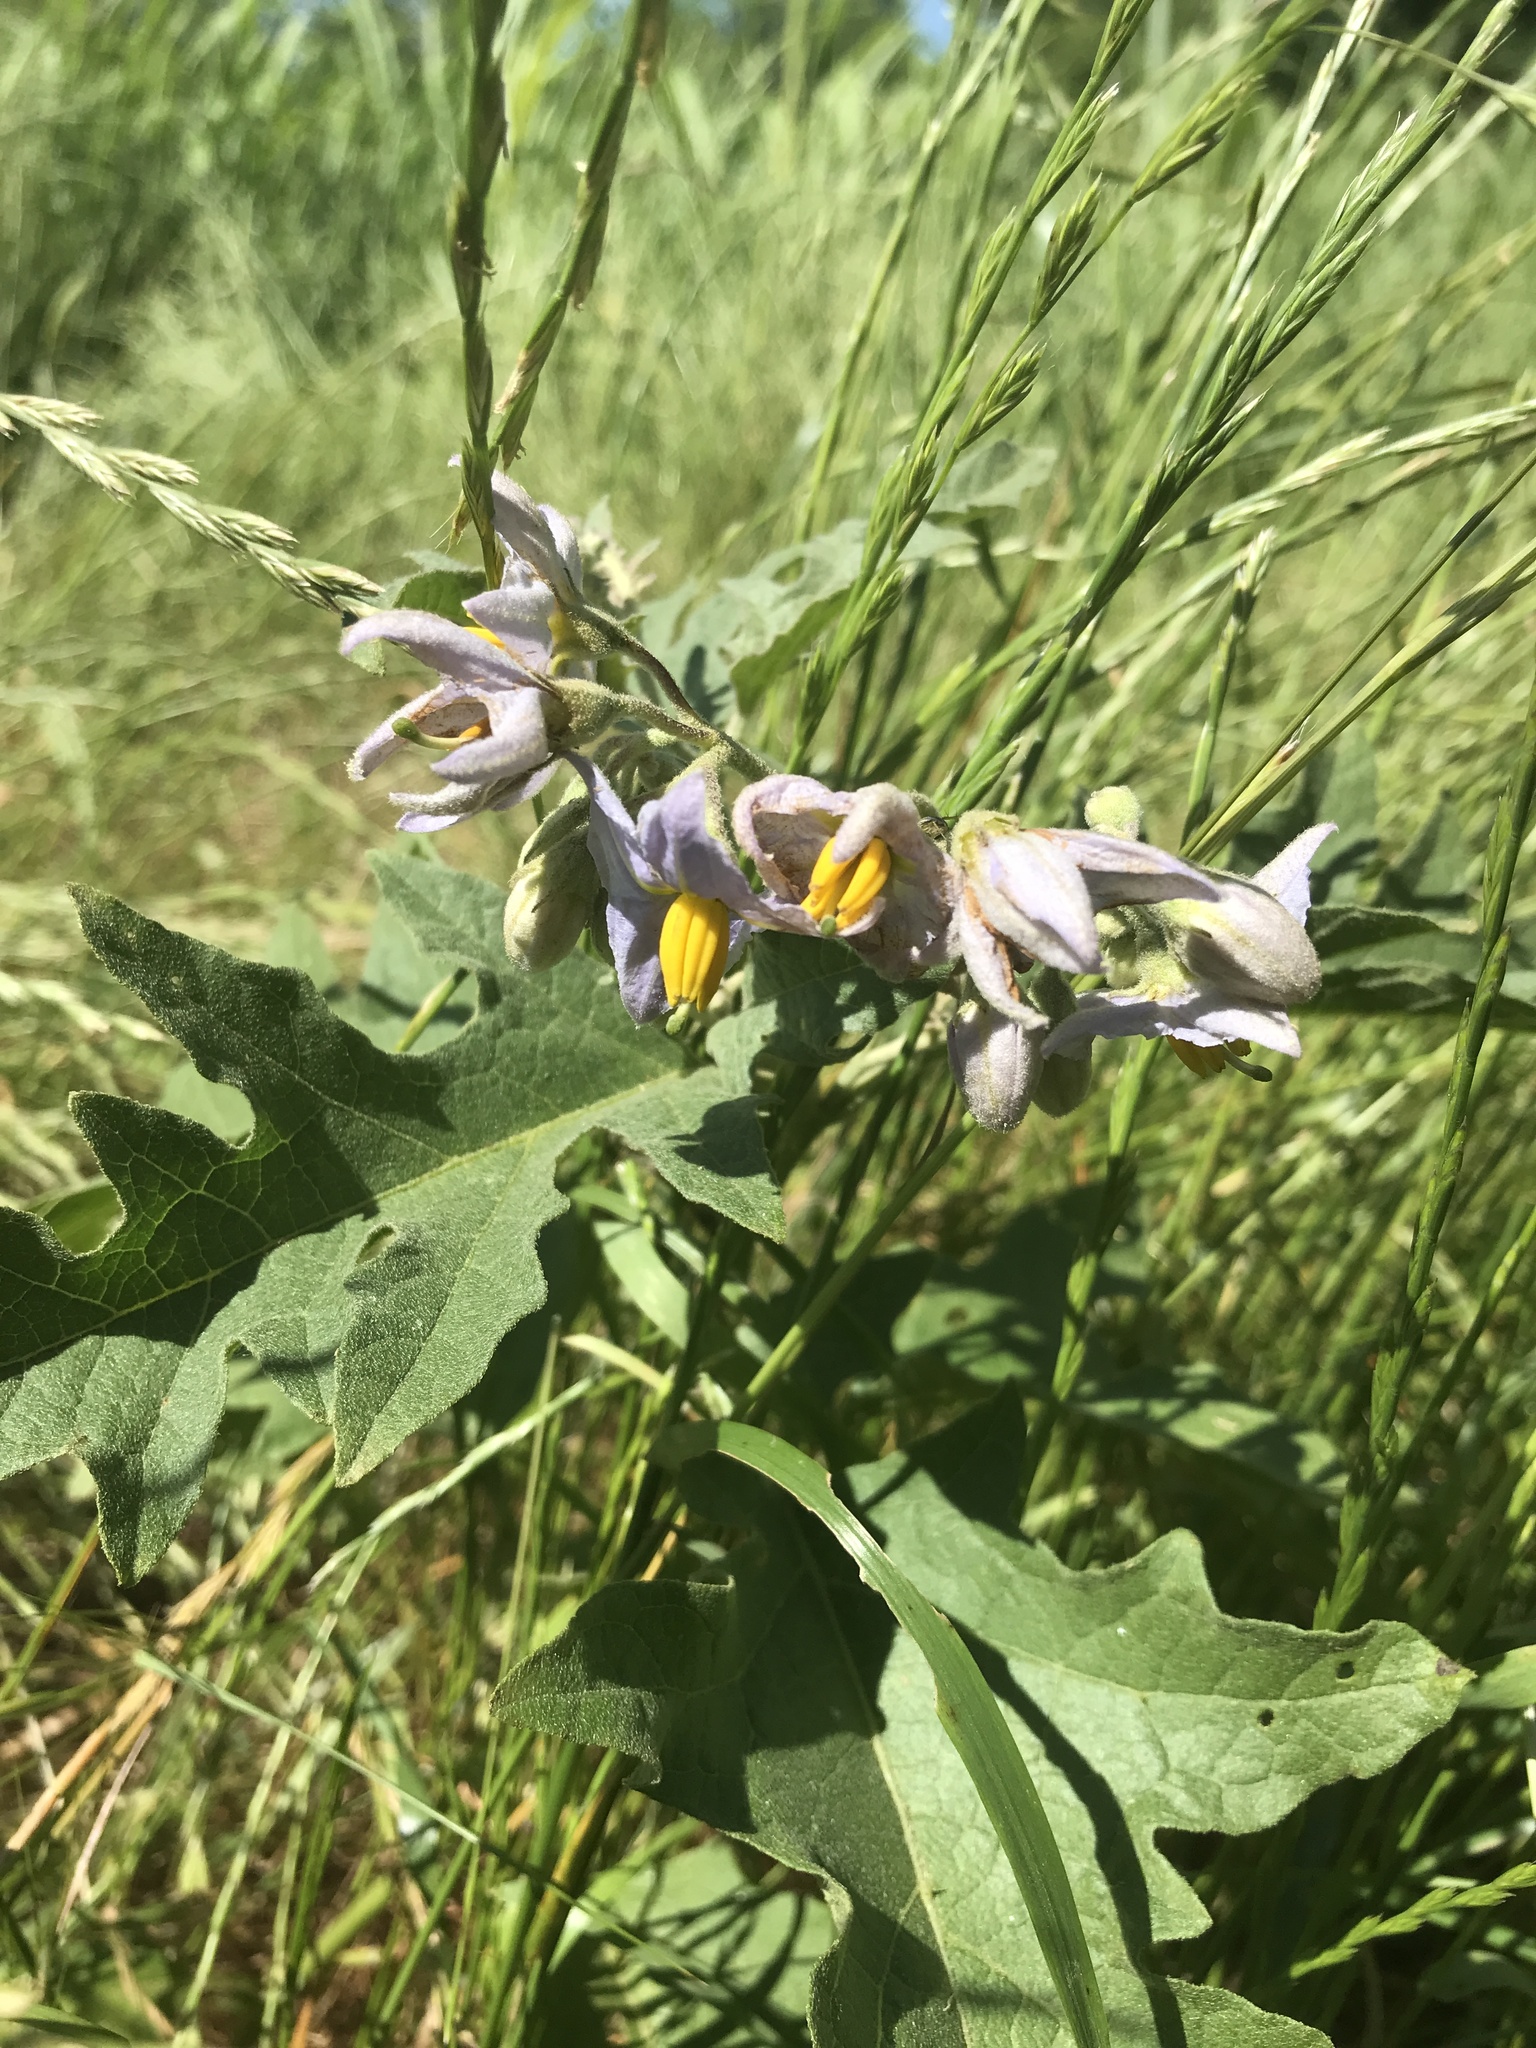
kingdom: Plantae
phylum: Tracheophyta
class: Magnoliopsida
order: Solanales
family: Solanaceae
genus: Solanum
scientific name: Solanum dimidiatum
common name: Carolina horse-nettle
